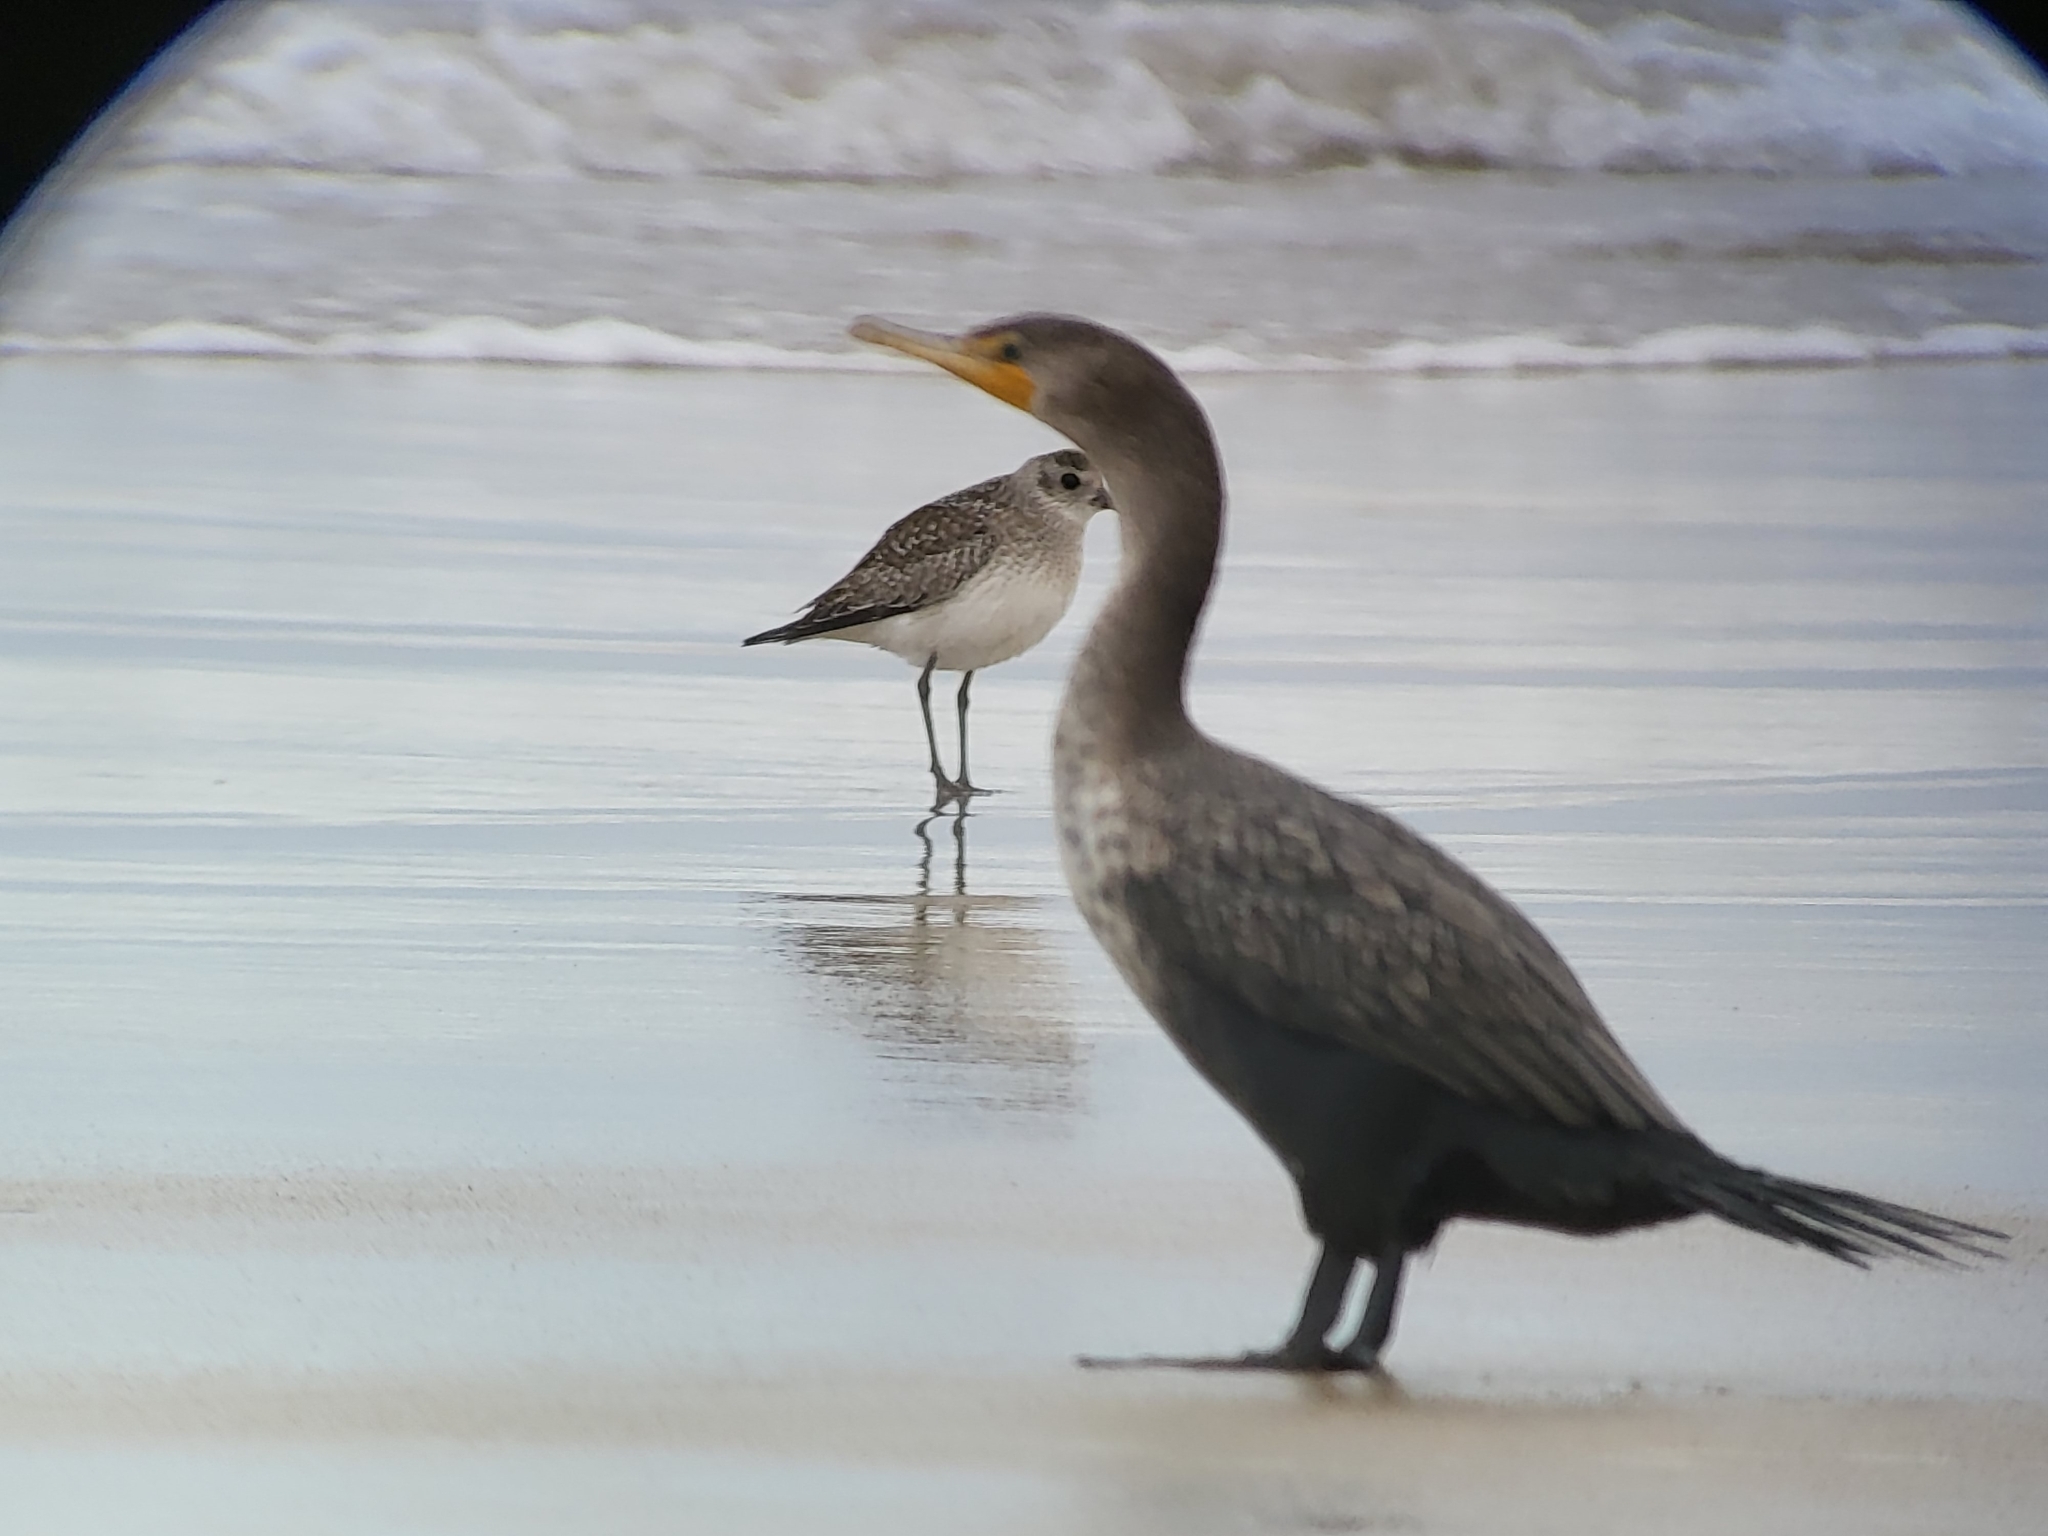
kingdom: Animalia
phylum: Chordata
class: Aves
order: Charadriiformes
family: Charadriidae
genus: Pluvialis
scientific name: Pluvialis squatarola
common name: Grey plover
